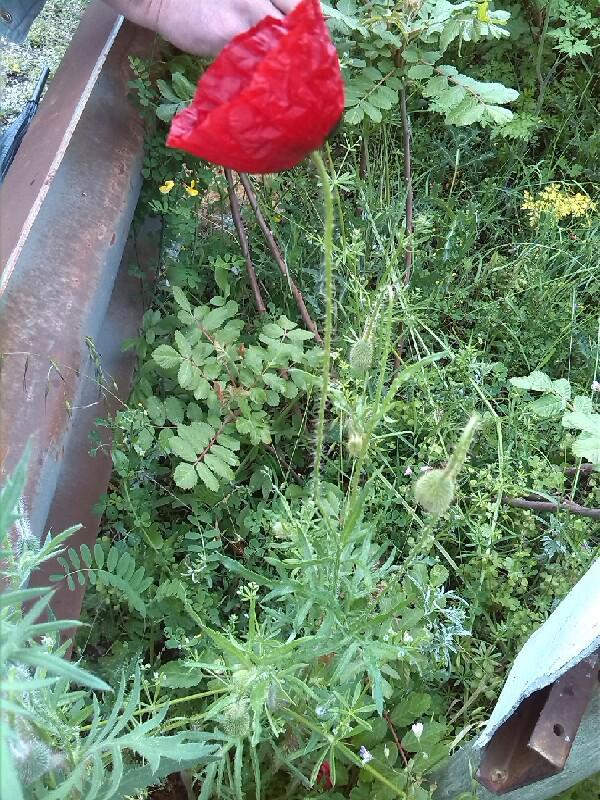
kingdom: Plantae
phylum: Tracheophyta
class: Magnoliopsida
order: Ranunculales
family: Papaveraceae
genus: Papaver
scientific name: Papaver rhoeas
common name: Corn poppy
